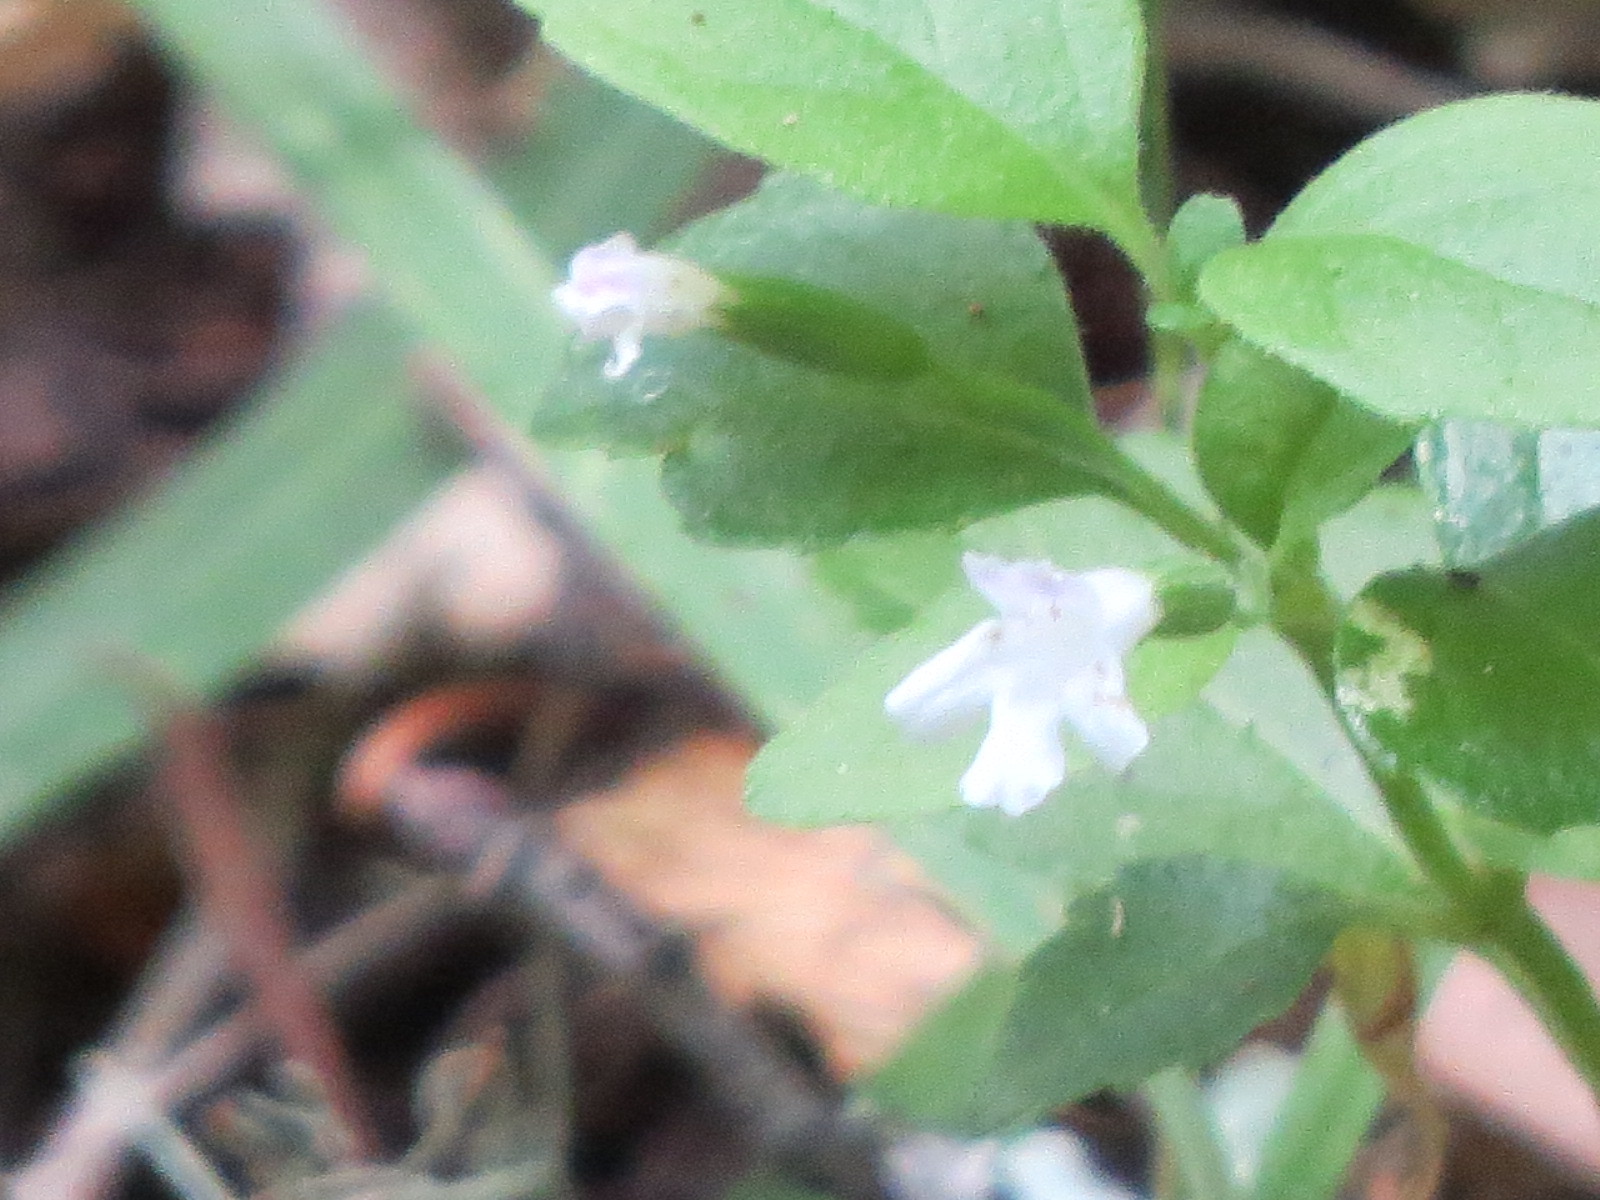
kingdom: Plantae
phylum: Tracheophyta
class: Magnoliopsida
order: Lamiales
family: Lamiaceae
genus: Micromeria
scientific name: Micromeria douglasii
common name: Yerba buena
